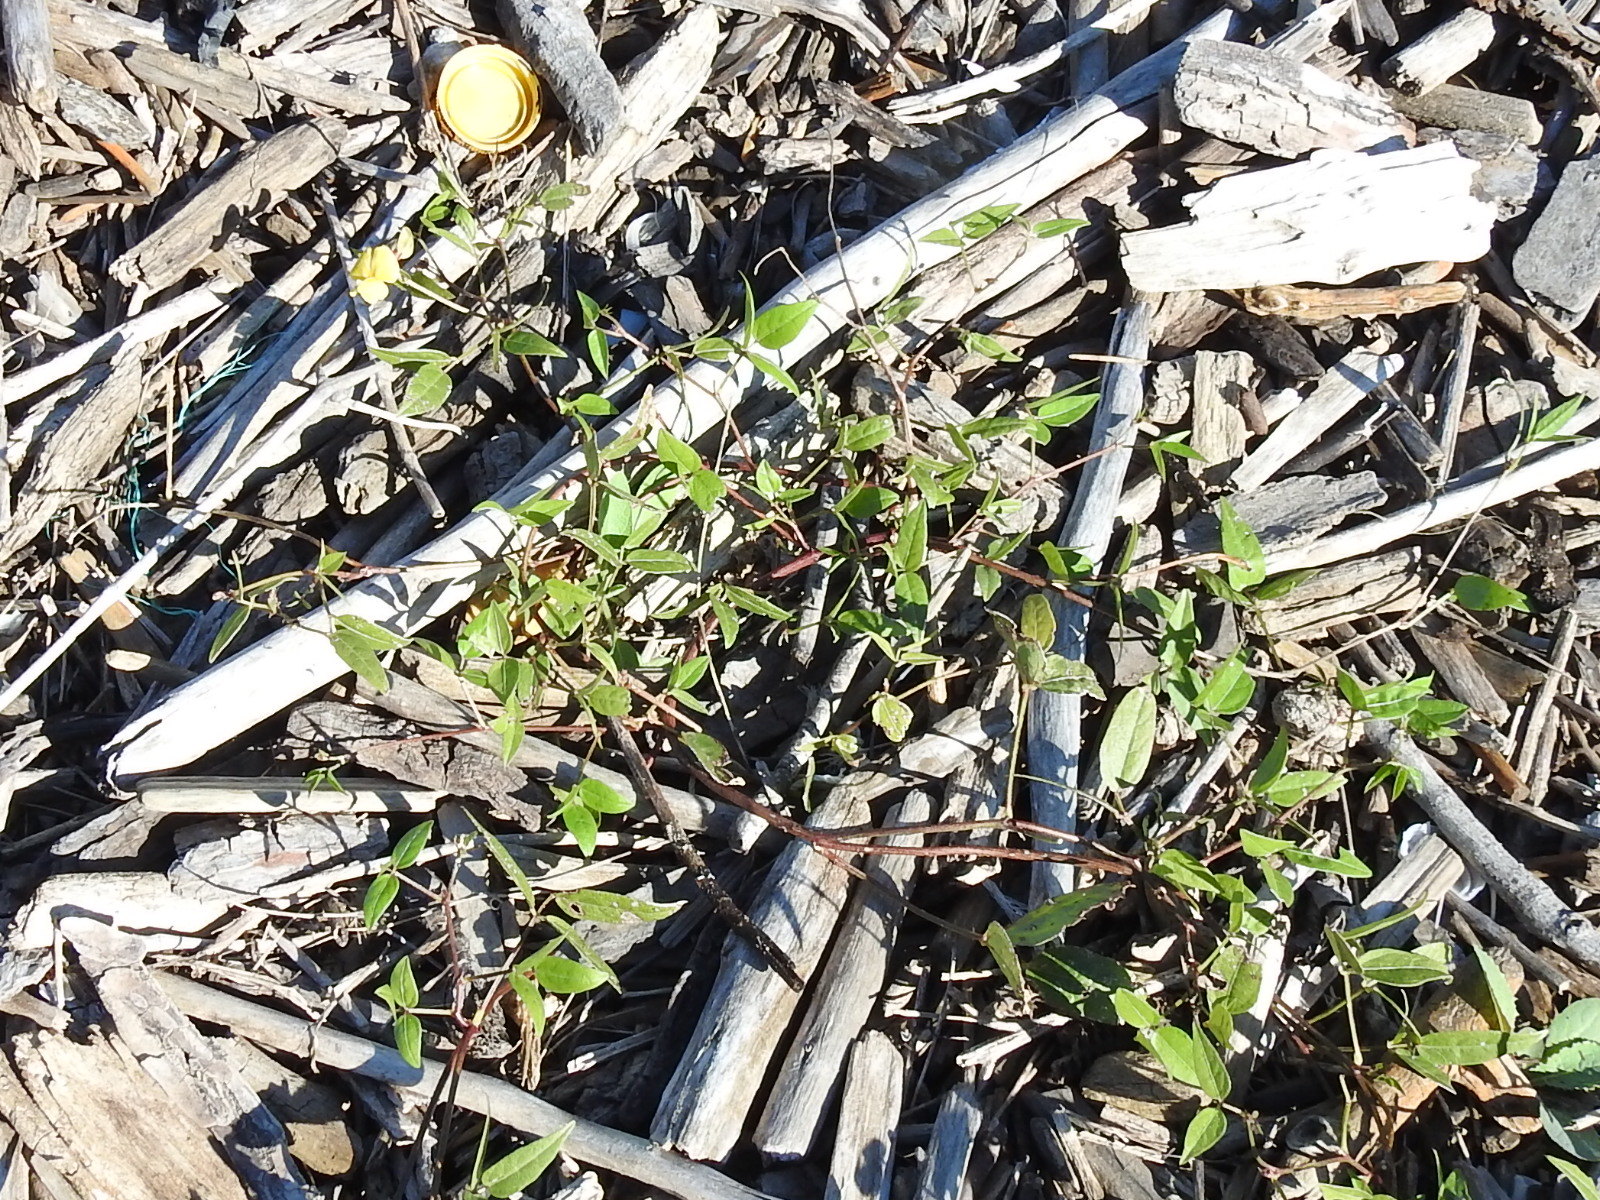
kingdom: Plantae
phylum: Tracheophyta
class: Magnoliopsida
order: Fabales
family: Fabaceae
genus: Vigna
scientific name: Vigna luteola
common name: Hairypod cowpea
